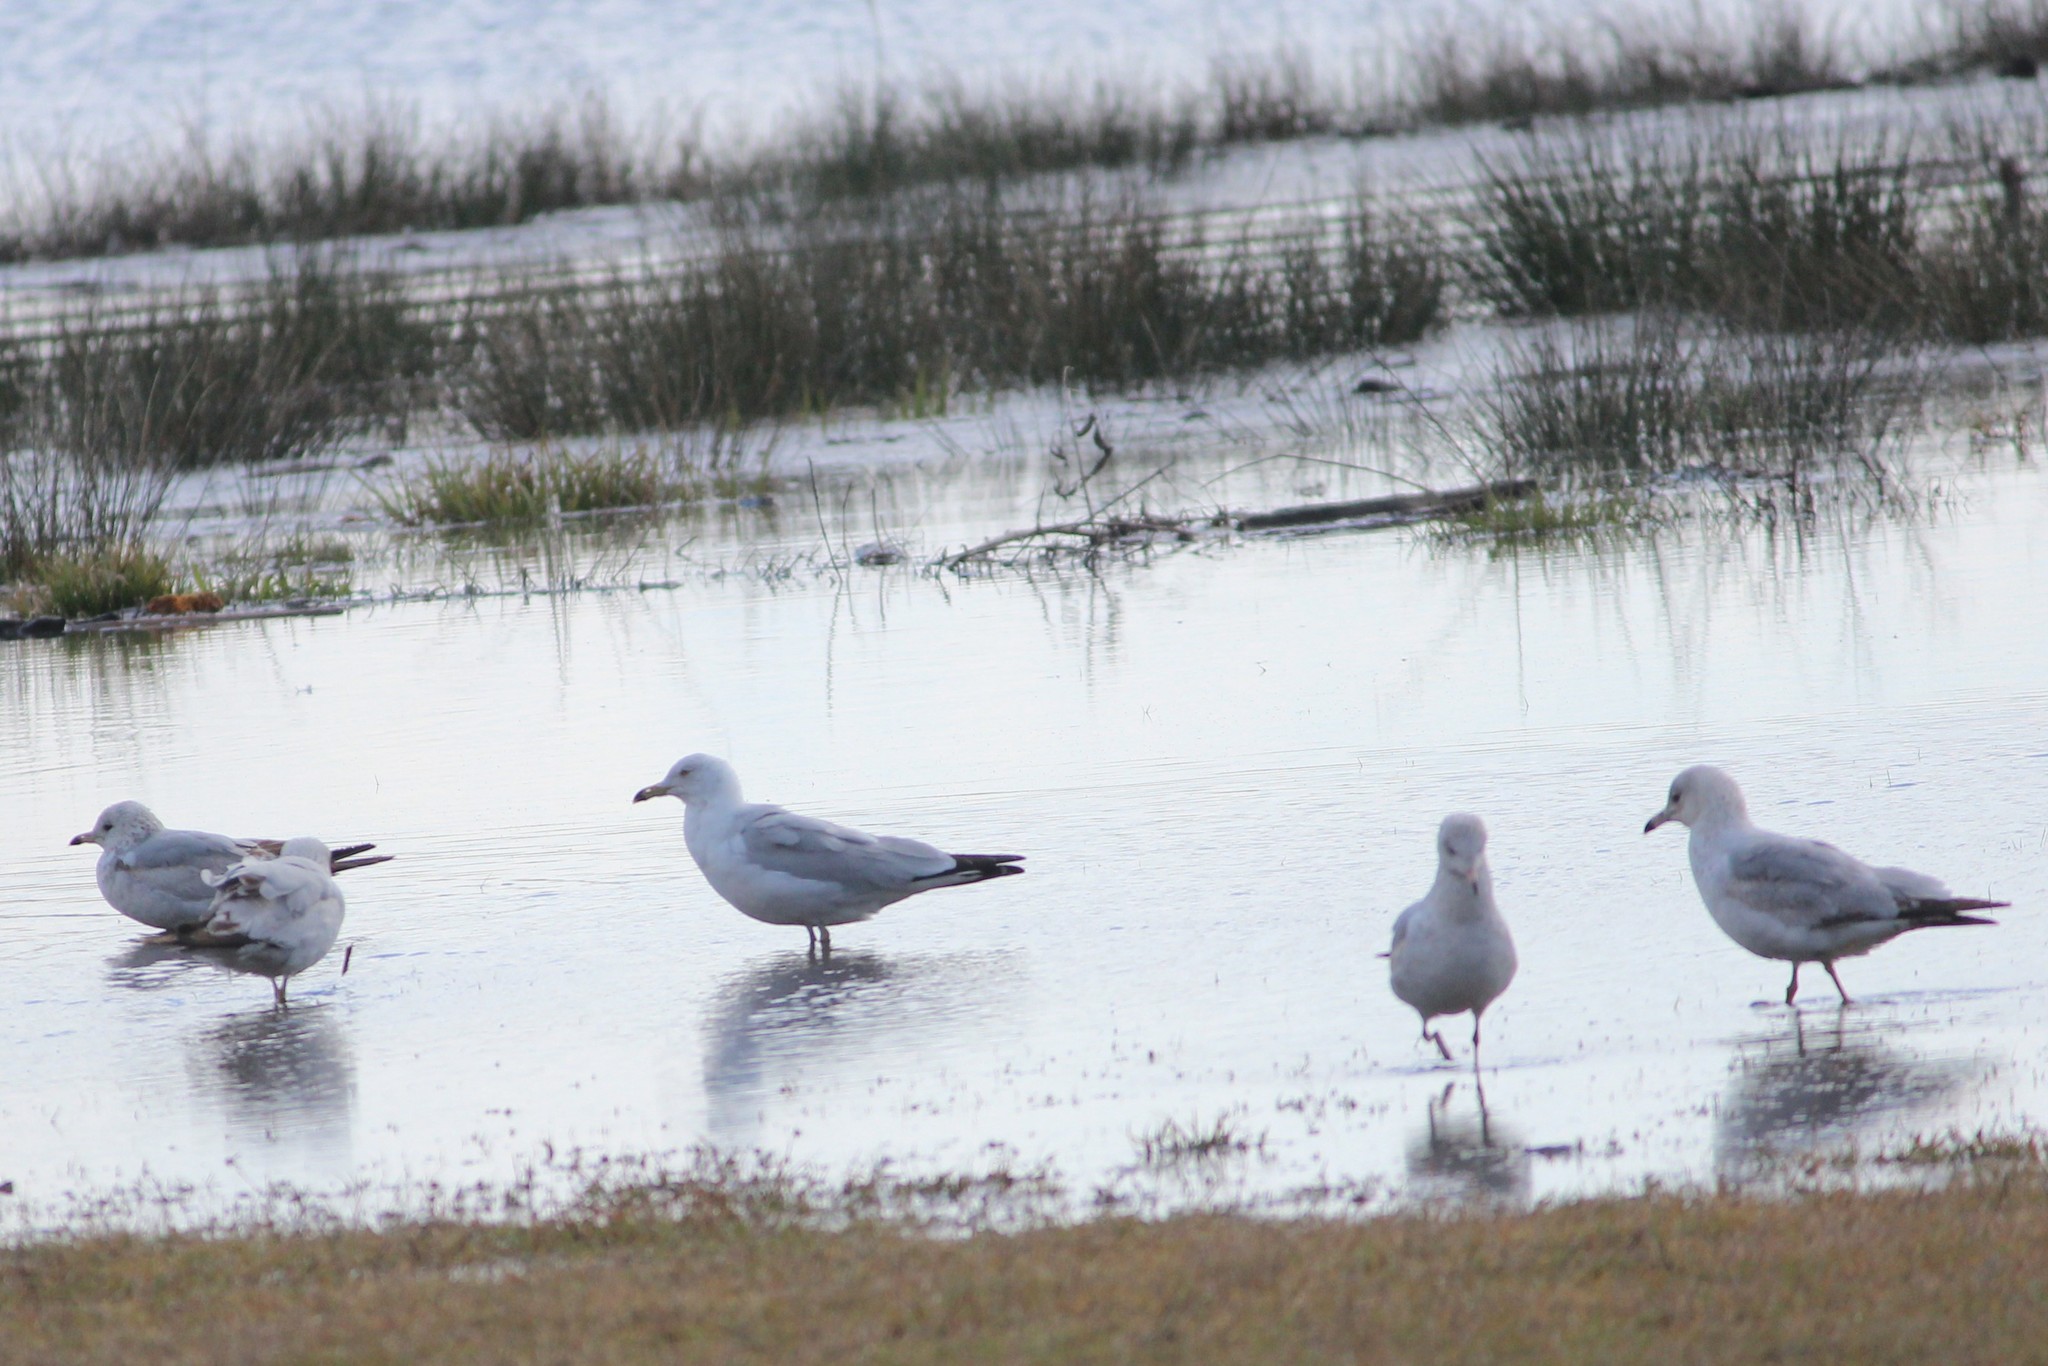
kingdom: Animalia
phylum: Chordata
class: Aves
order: Charadriiformes
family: Laridae
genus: Larus
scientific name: Larus delawarensis
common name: Ring-billed gull
